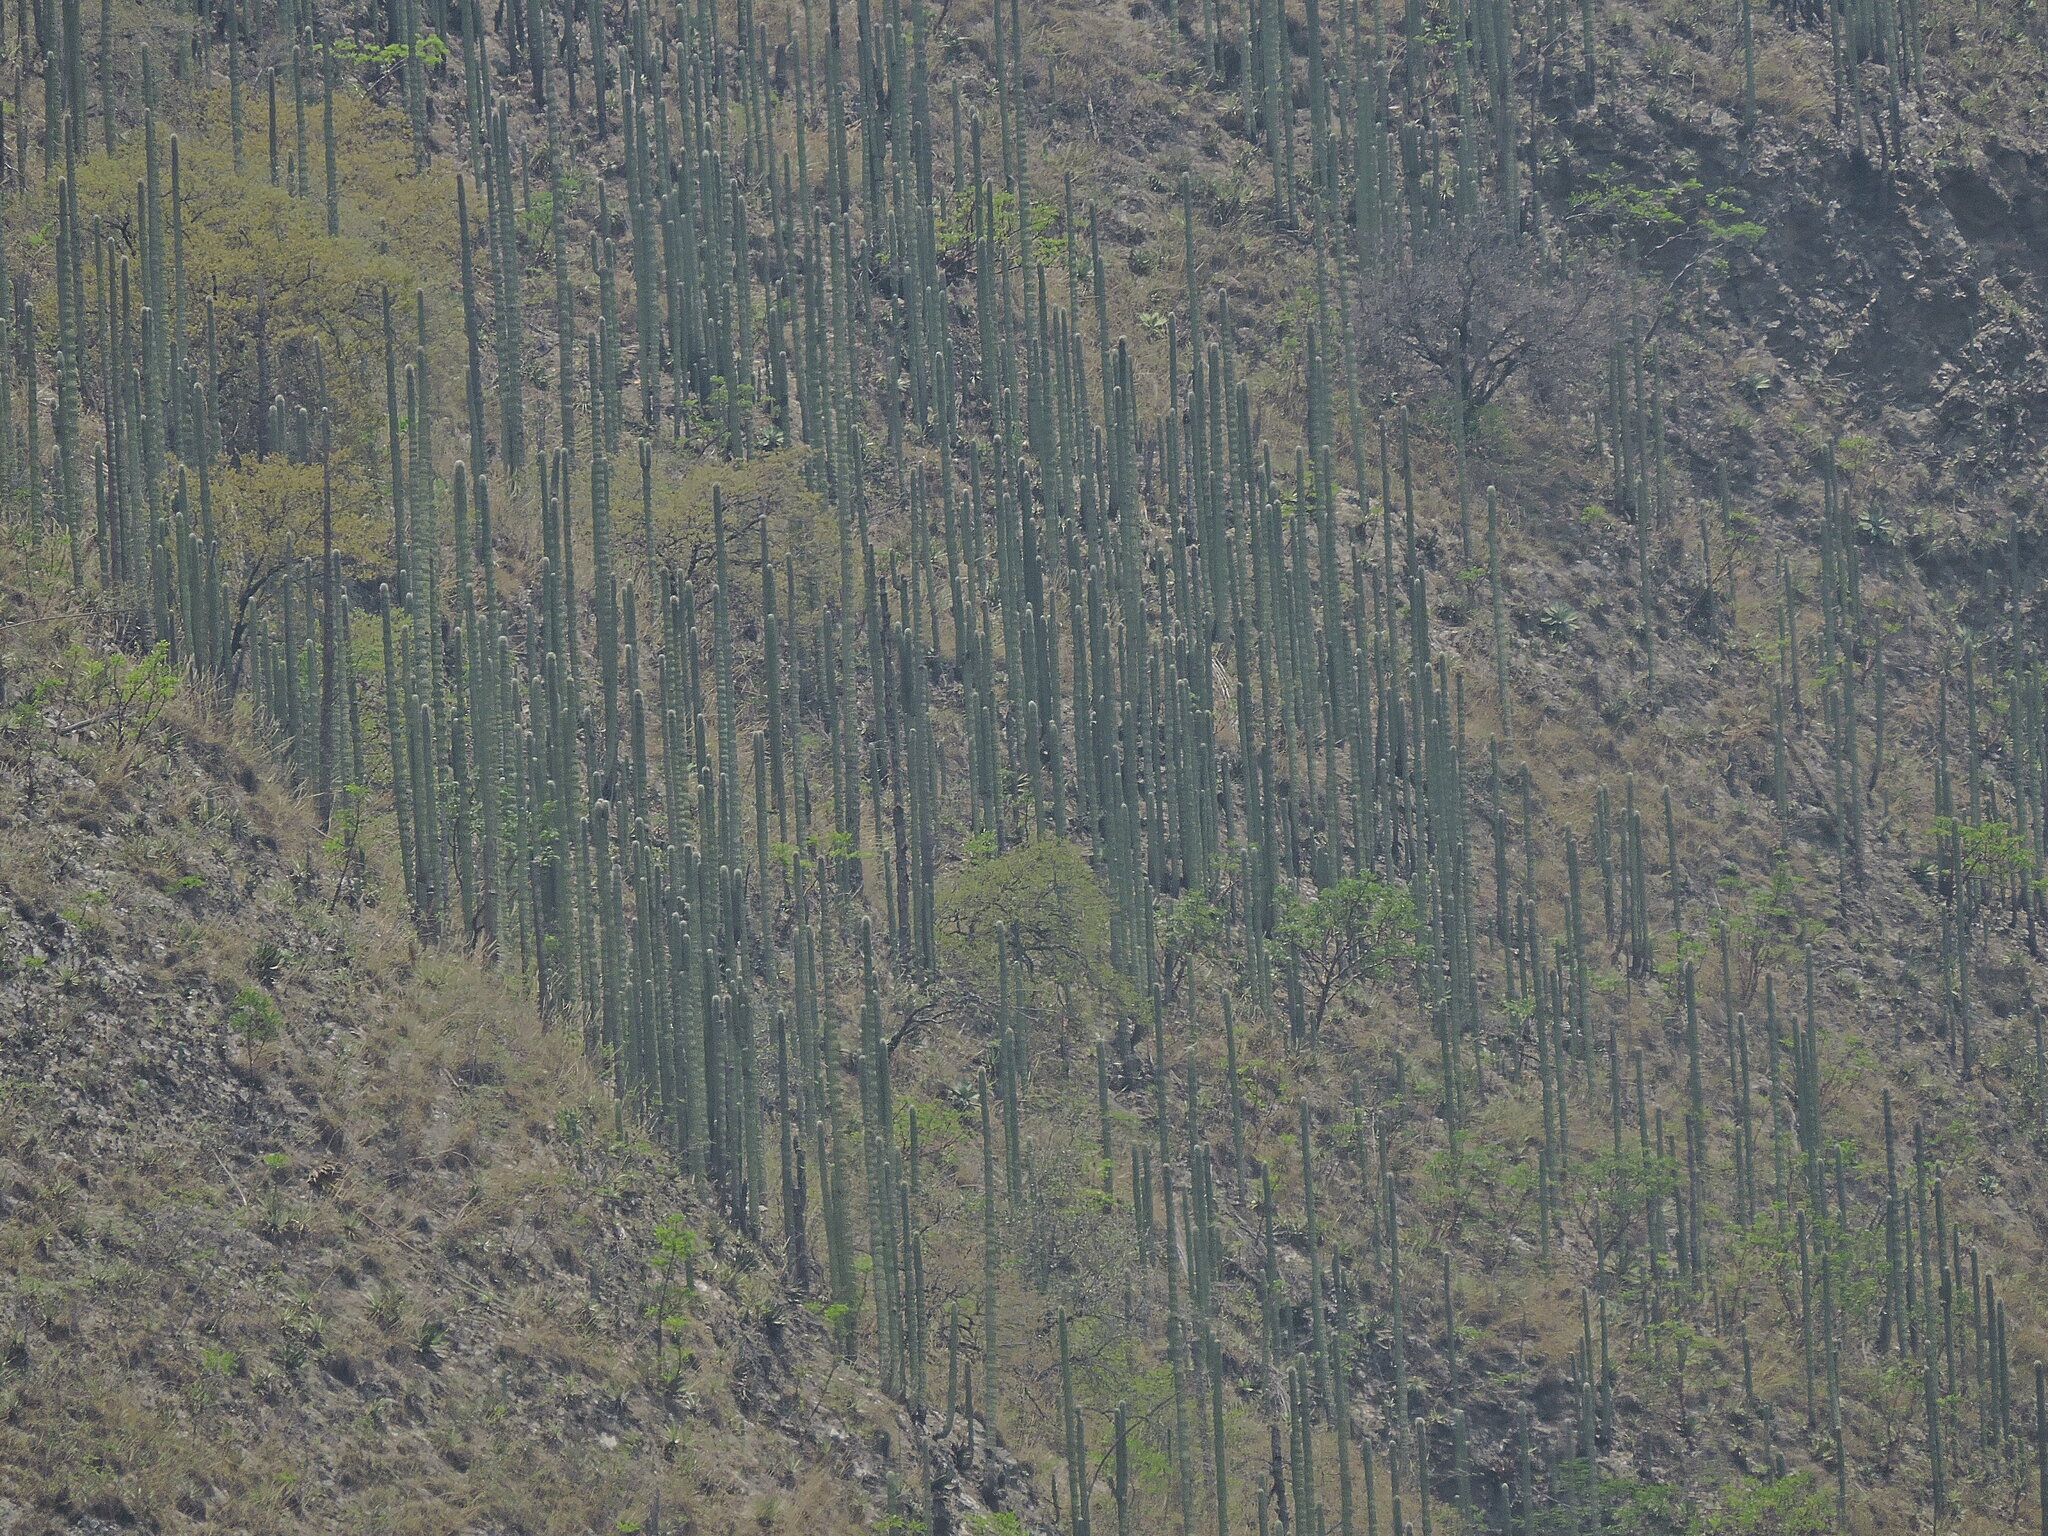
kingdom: Plantae
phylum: Tracheophyta
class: Magnoliopsida
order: Caryophyllales
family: Cactaceae
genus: Cephalocereus
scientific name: Cephalocereus mezcalaensis
